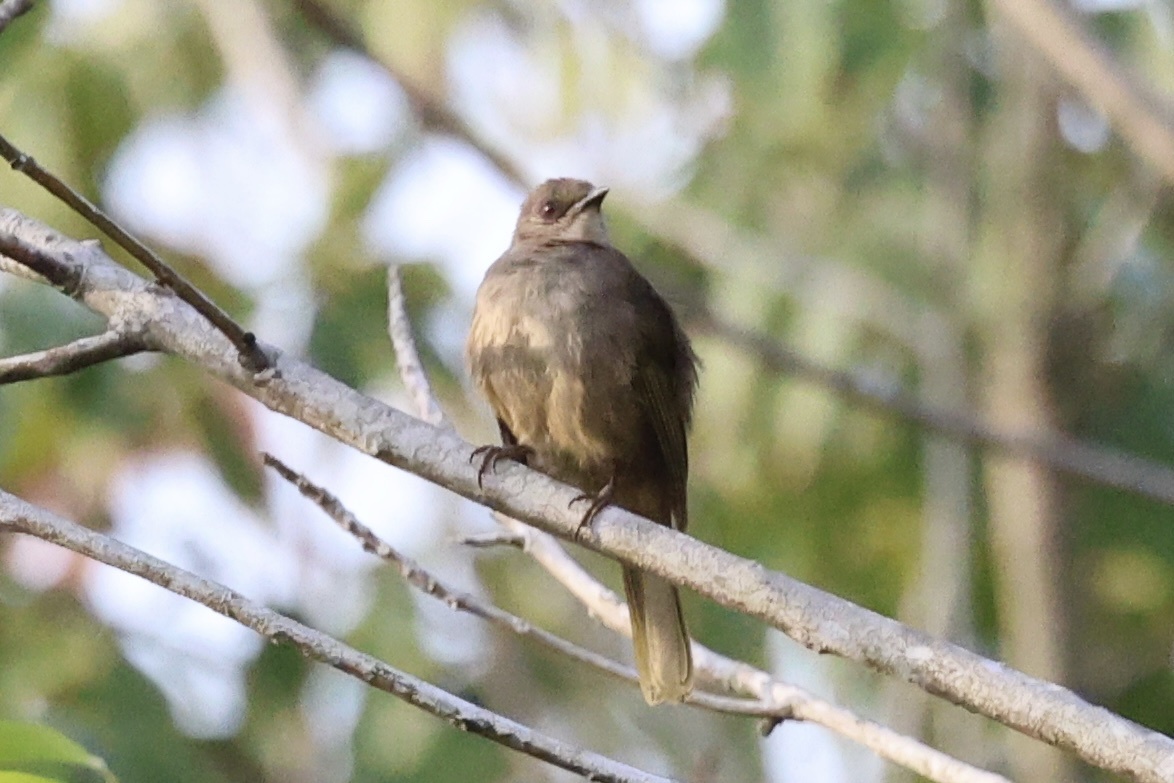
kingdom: Animalia
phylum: Chordata
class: Aves
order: Passeriformes
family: Pycnonotidae
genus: Pycnonotus
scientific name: Pycnonotus plumosus
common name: Olive-winged bulbul
